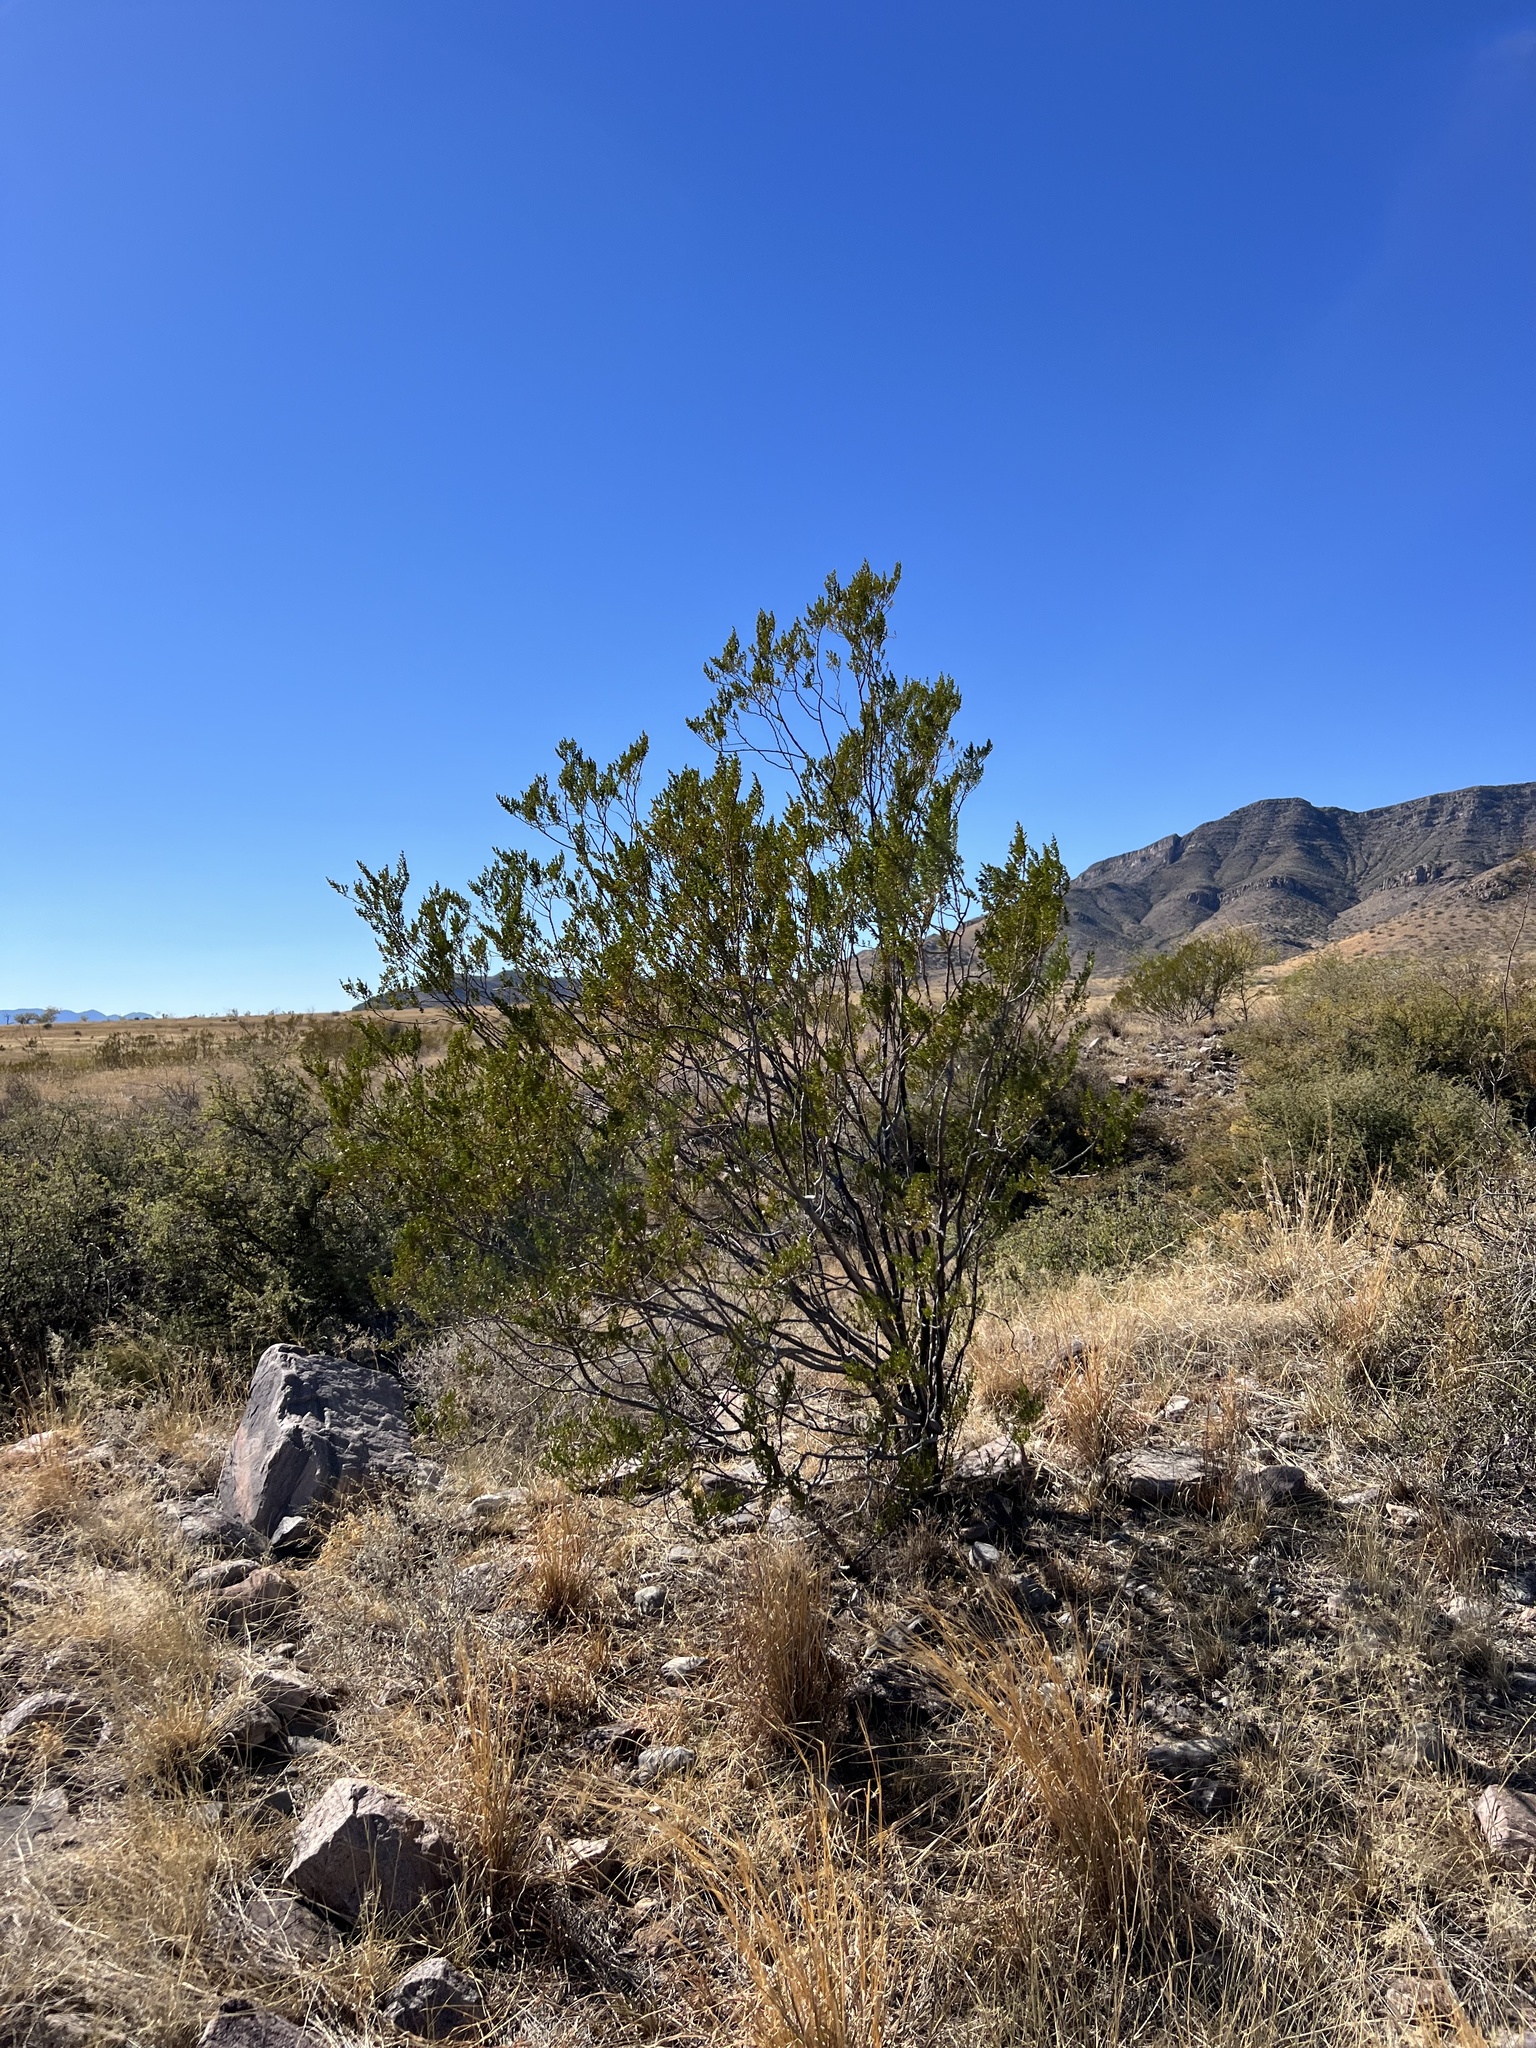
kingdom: Plantae
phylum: Tracheophyta
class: Magnoliopsida
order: Zygophyllales
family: Zygophyllaceae
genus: Larrea
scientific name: Larrea tridentata
